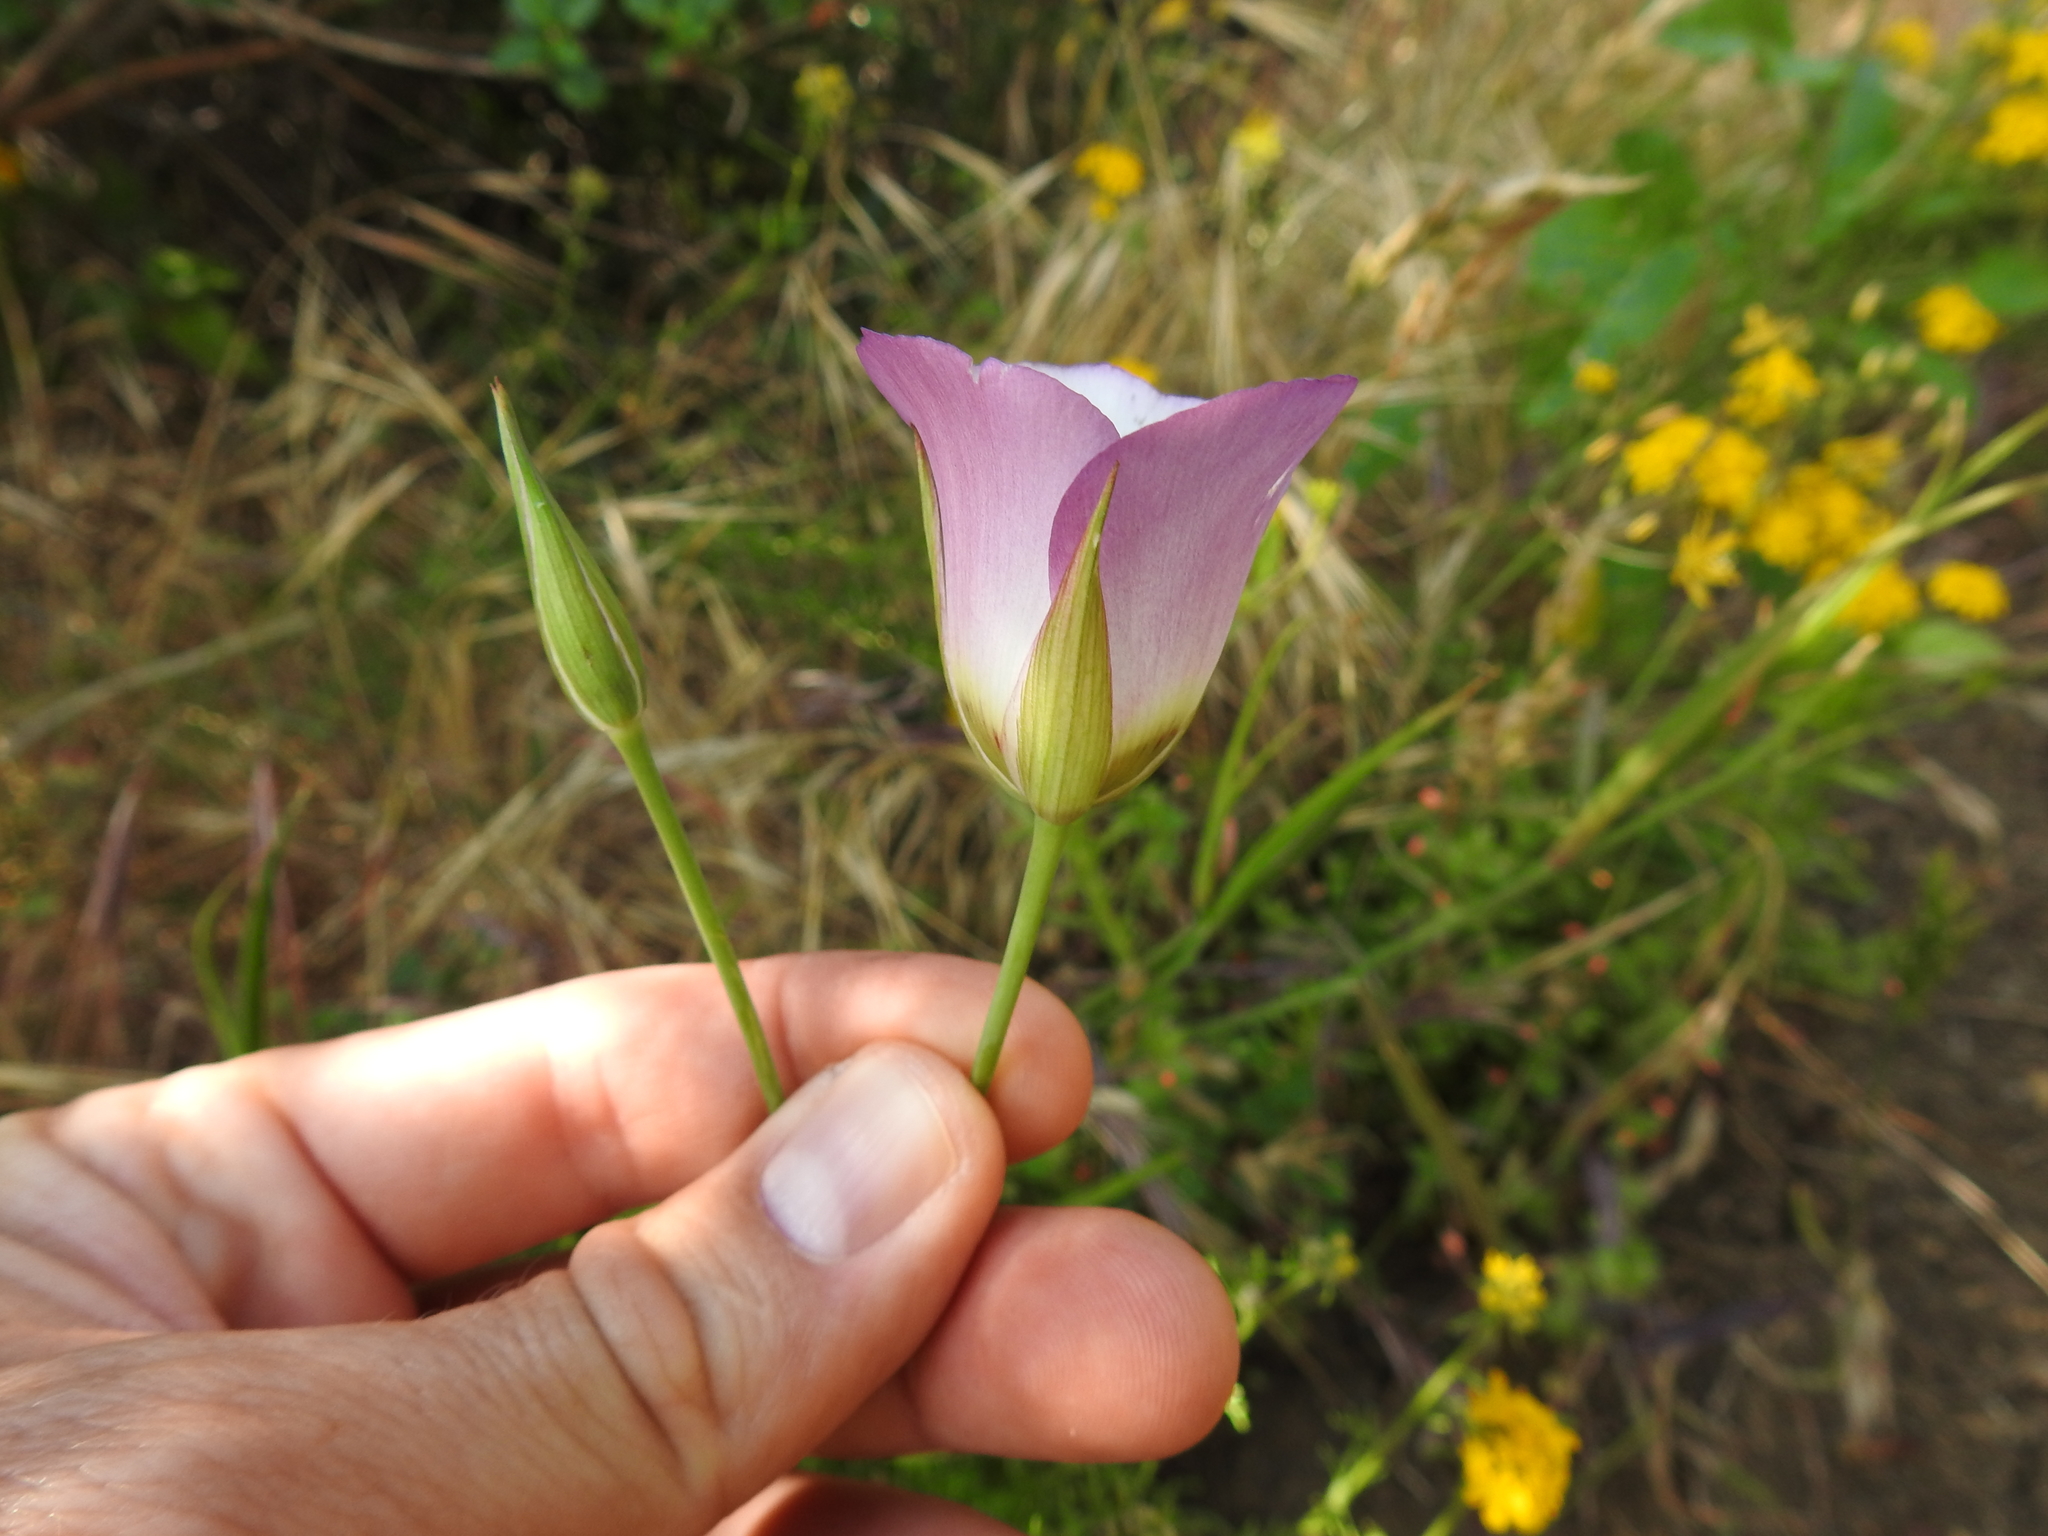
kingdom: Plantae
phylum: Tracheophyta
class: Liliopsida
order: Liliales
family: Liliaceae
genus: Calochortus
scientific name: Calochortus catalinae
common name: Catalina mariposa-lily
